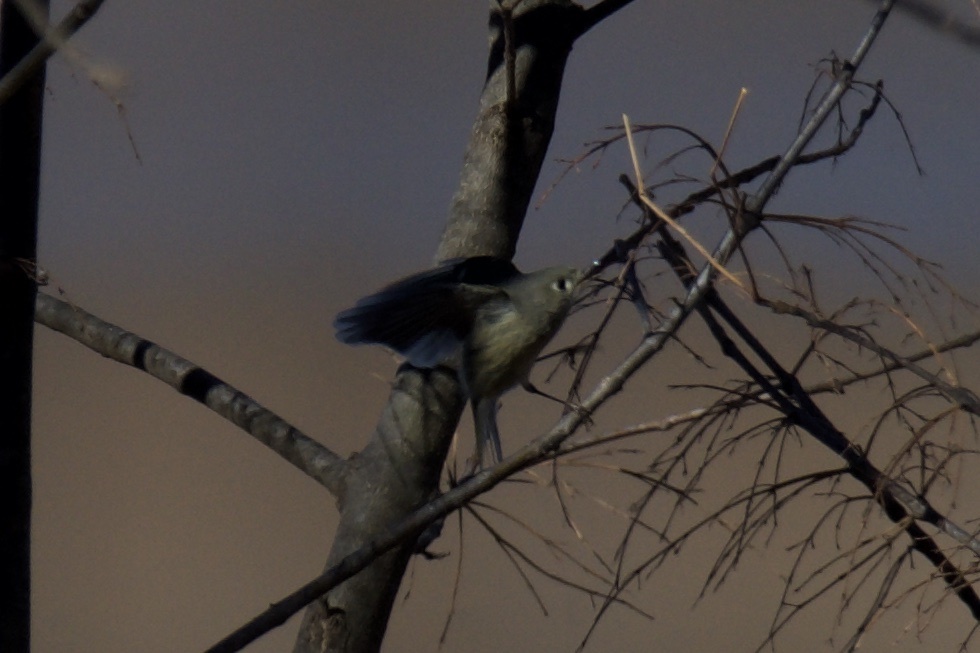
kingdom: Animalia
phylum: Chordata
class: Aves
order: Passeriformes
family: Regulidae
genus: Regulus
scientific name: Regulus calendula
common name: Ruby-crowned kinglet
